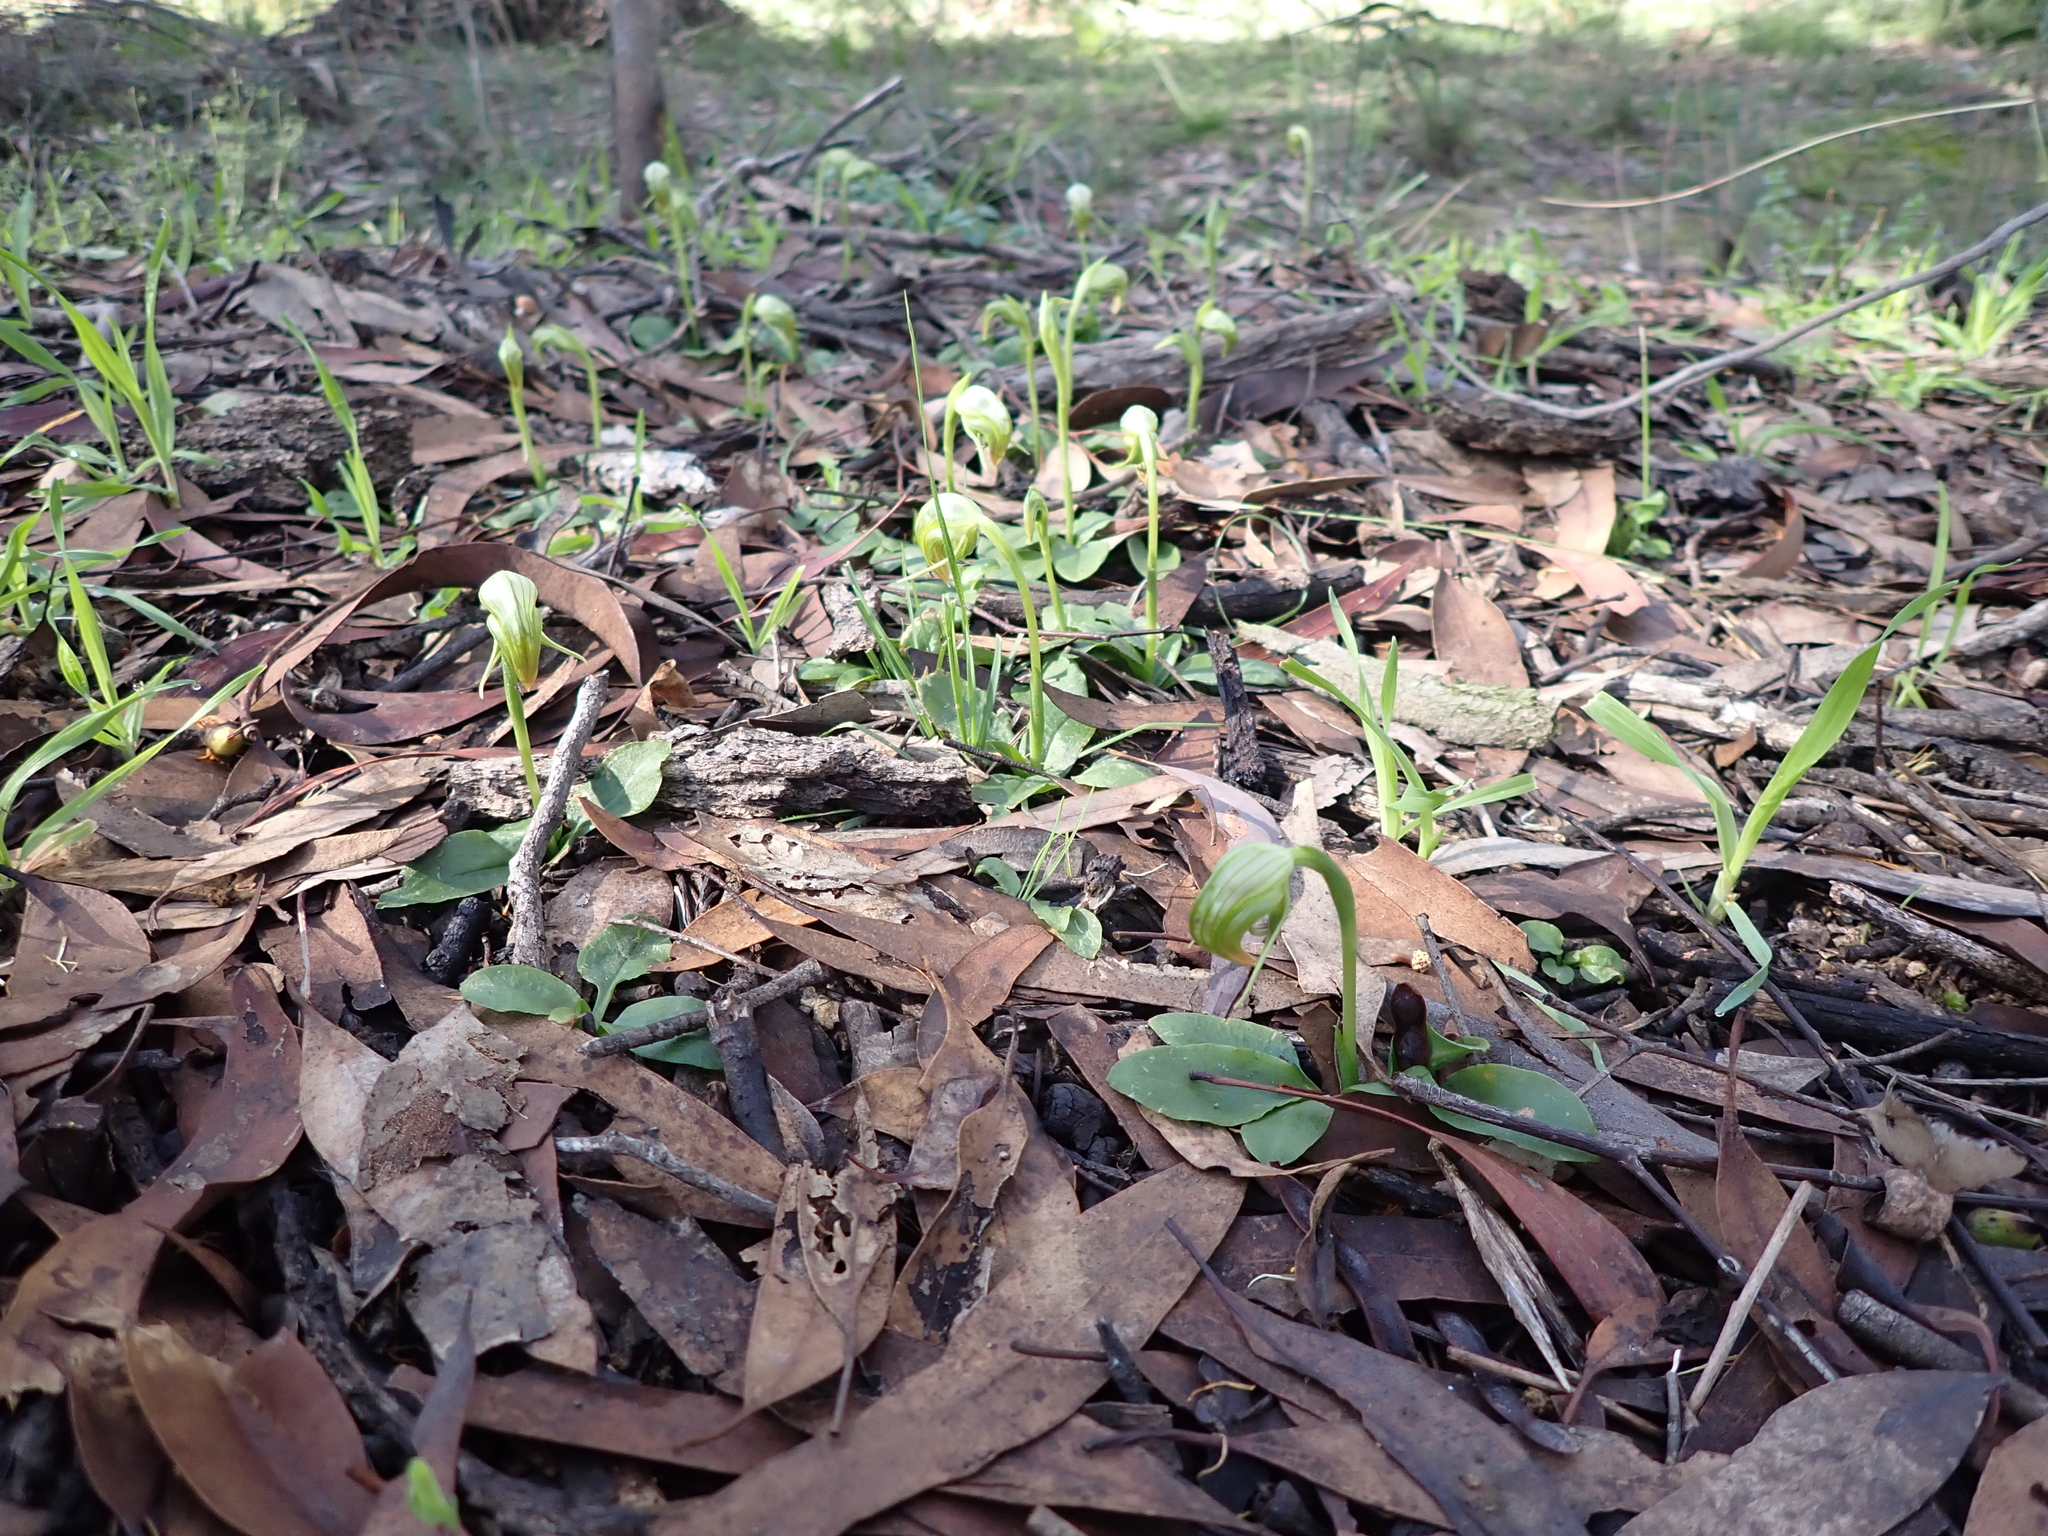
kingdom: Plantae
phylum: Tracheophyta
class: Liliopsida
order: Asparagales
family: Orchidaceae
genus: Pterostylis
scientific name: Pterostylis nutans
